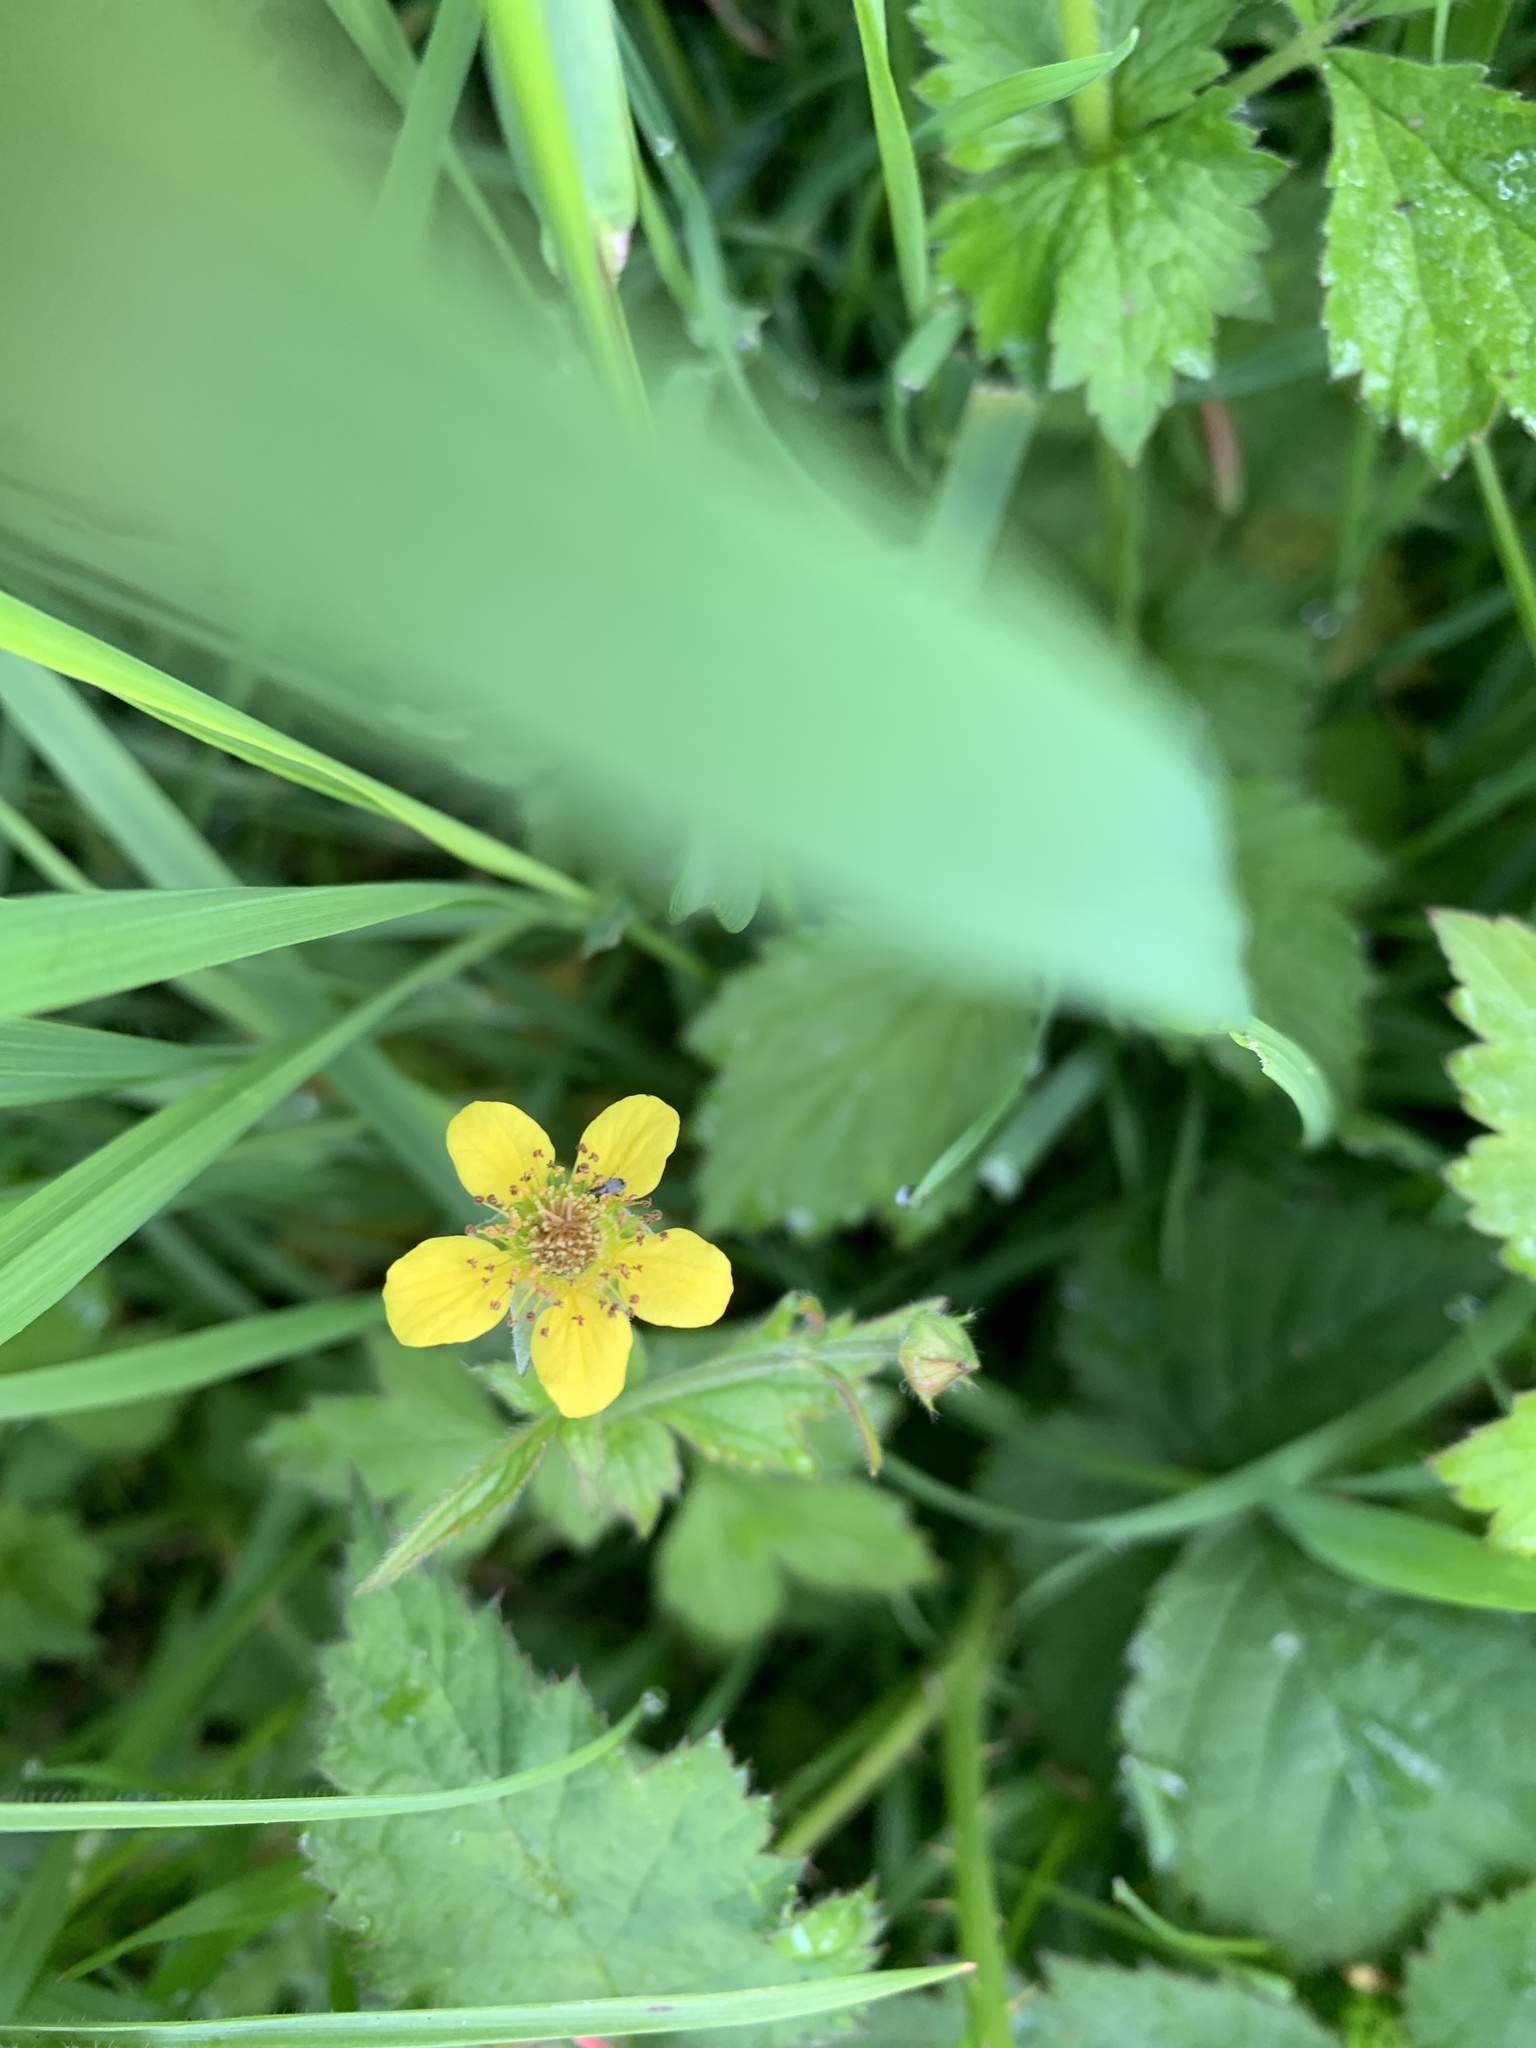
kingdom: Plantae
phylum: Tracheophyta
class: Magnoliopsida
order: Rosales
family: Rosaceae
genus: Geum
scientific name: Geum urbanum
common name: Wood avens
